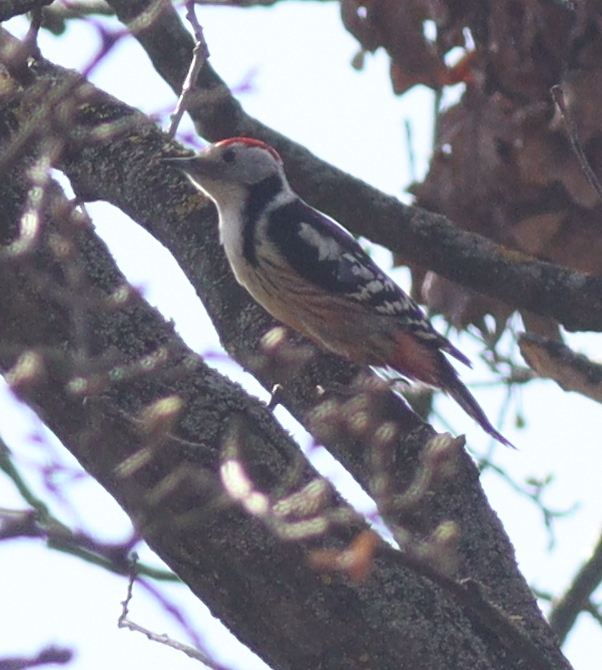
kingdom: Animalia
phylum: Chordata
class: Aves
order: Piciformes
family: Picidae
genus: Dendrocoptes
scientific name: Dendrocoptes medius
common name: Middle spotted woodpecker
